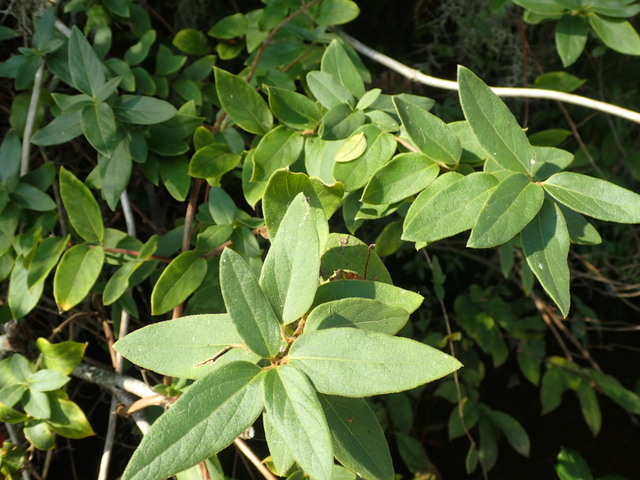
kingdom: Plantae
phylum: Tracheophyta
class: Magnoliopsida
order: Dipsacales
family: Caprifoliaceae
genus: Lonicera
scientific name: Lonicera japonica
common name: Japanese honeysuckle
